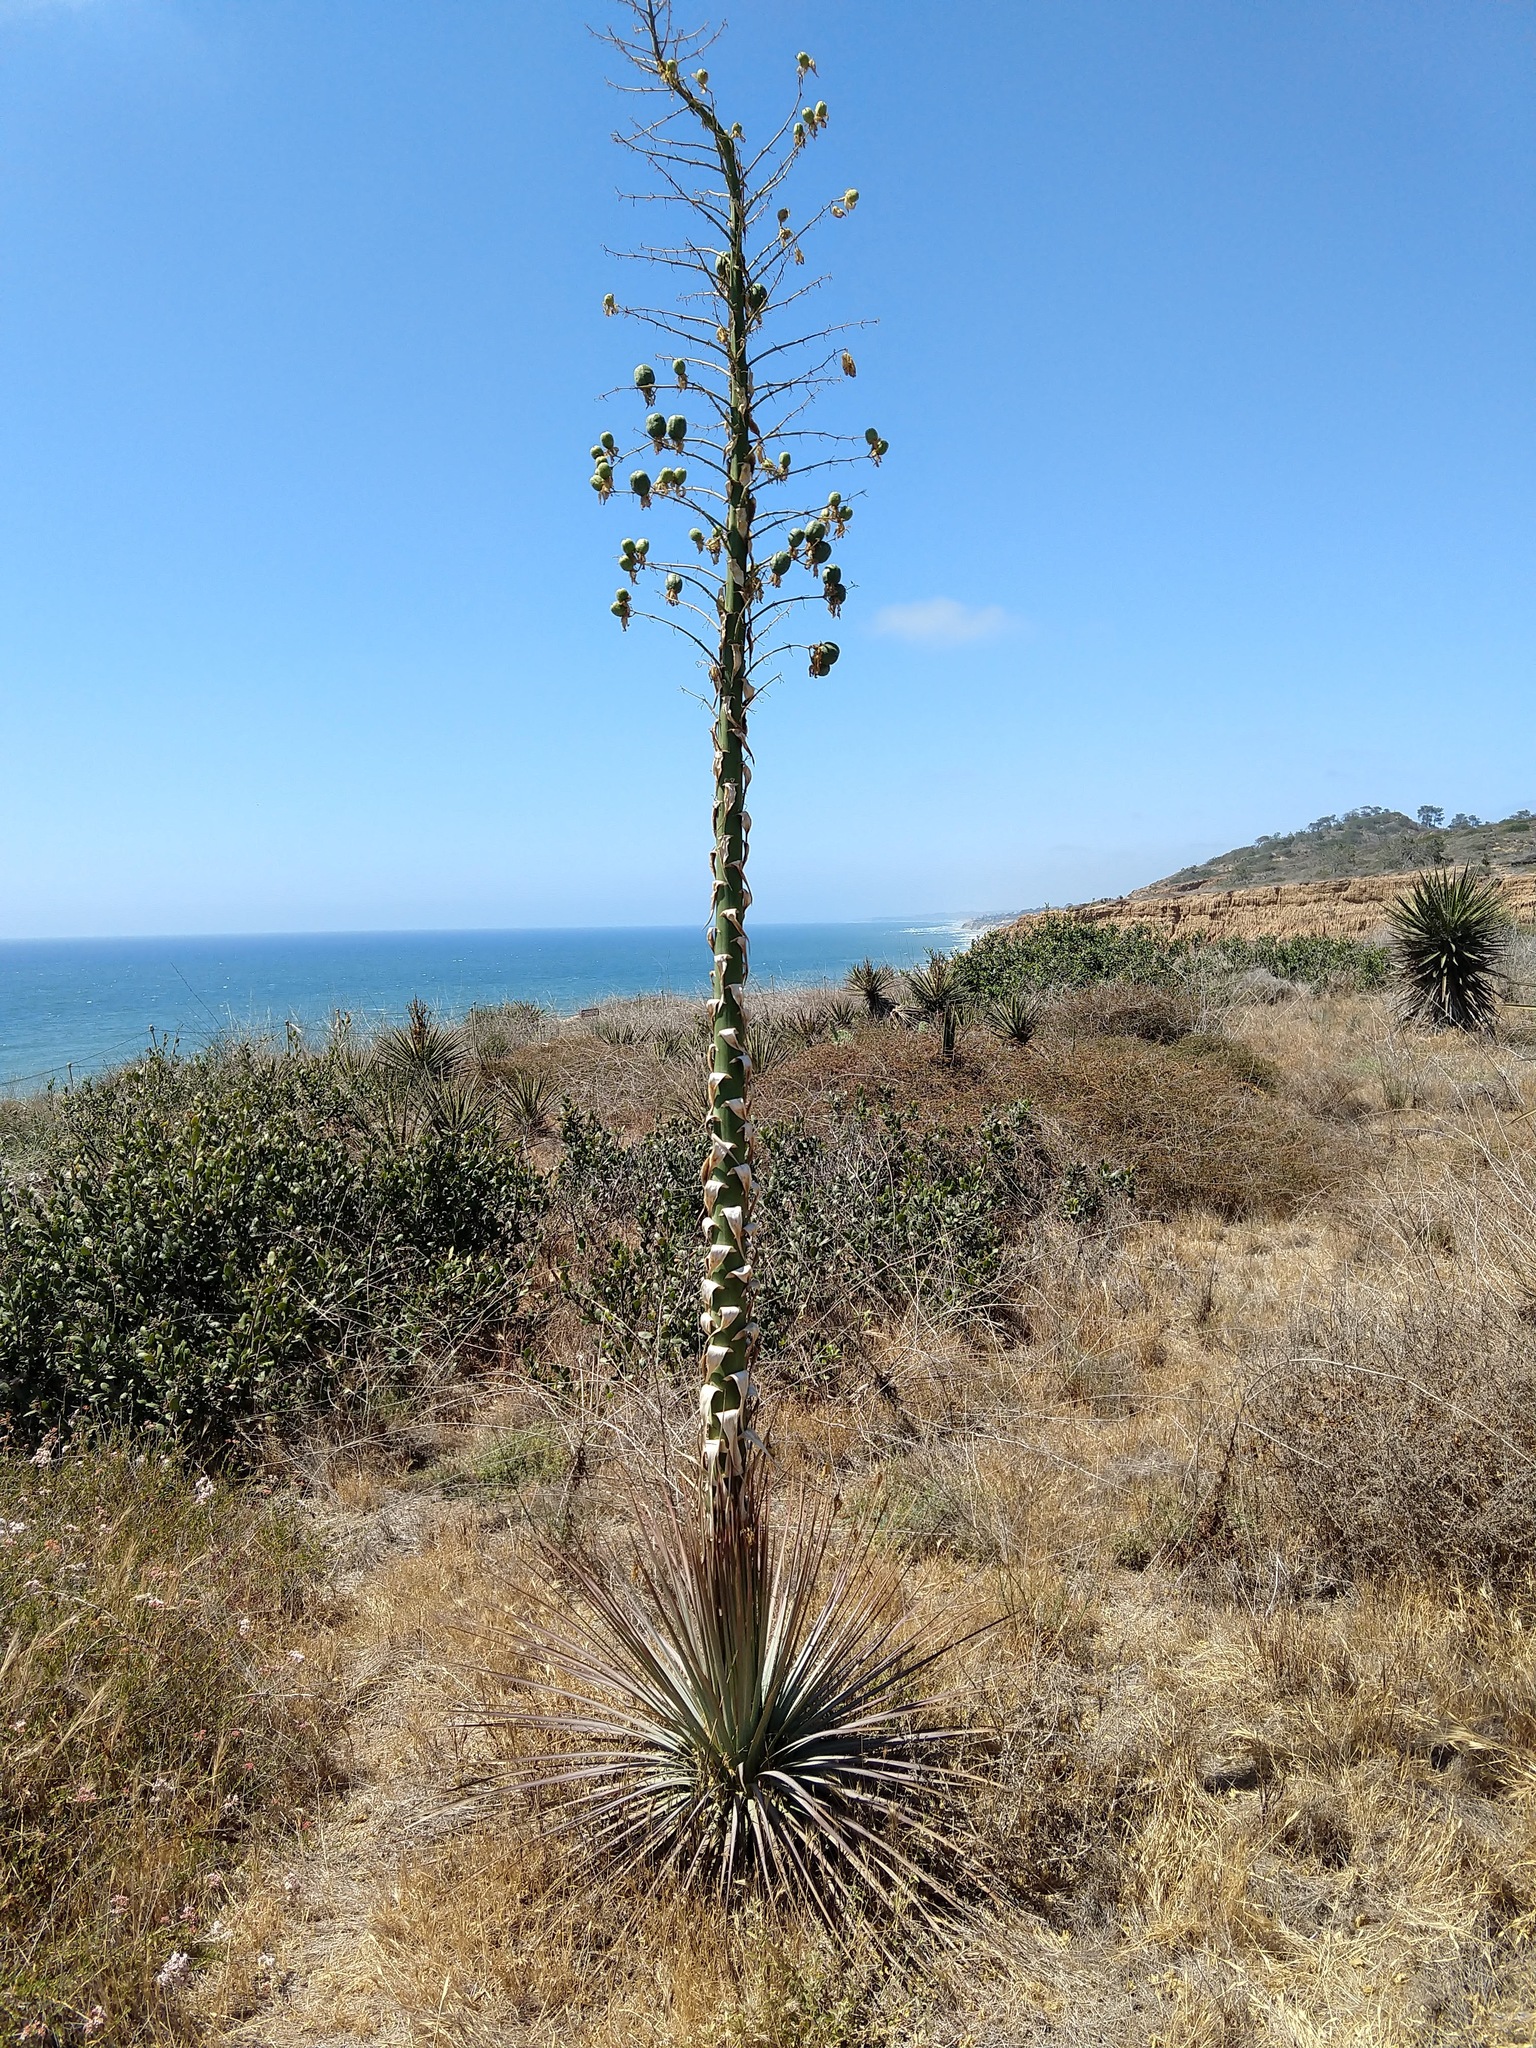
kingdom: Plantae
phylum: Tracheophyta
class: Liliopsida
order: Asparagales
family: Asparagaceae
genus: Hesperoyucca
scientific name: Hesperoyucca whipplei
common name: Our lord's-candle
